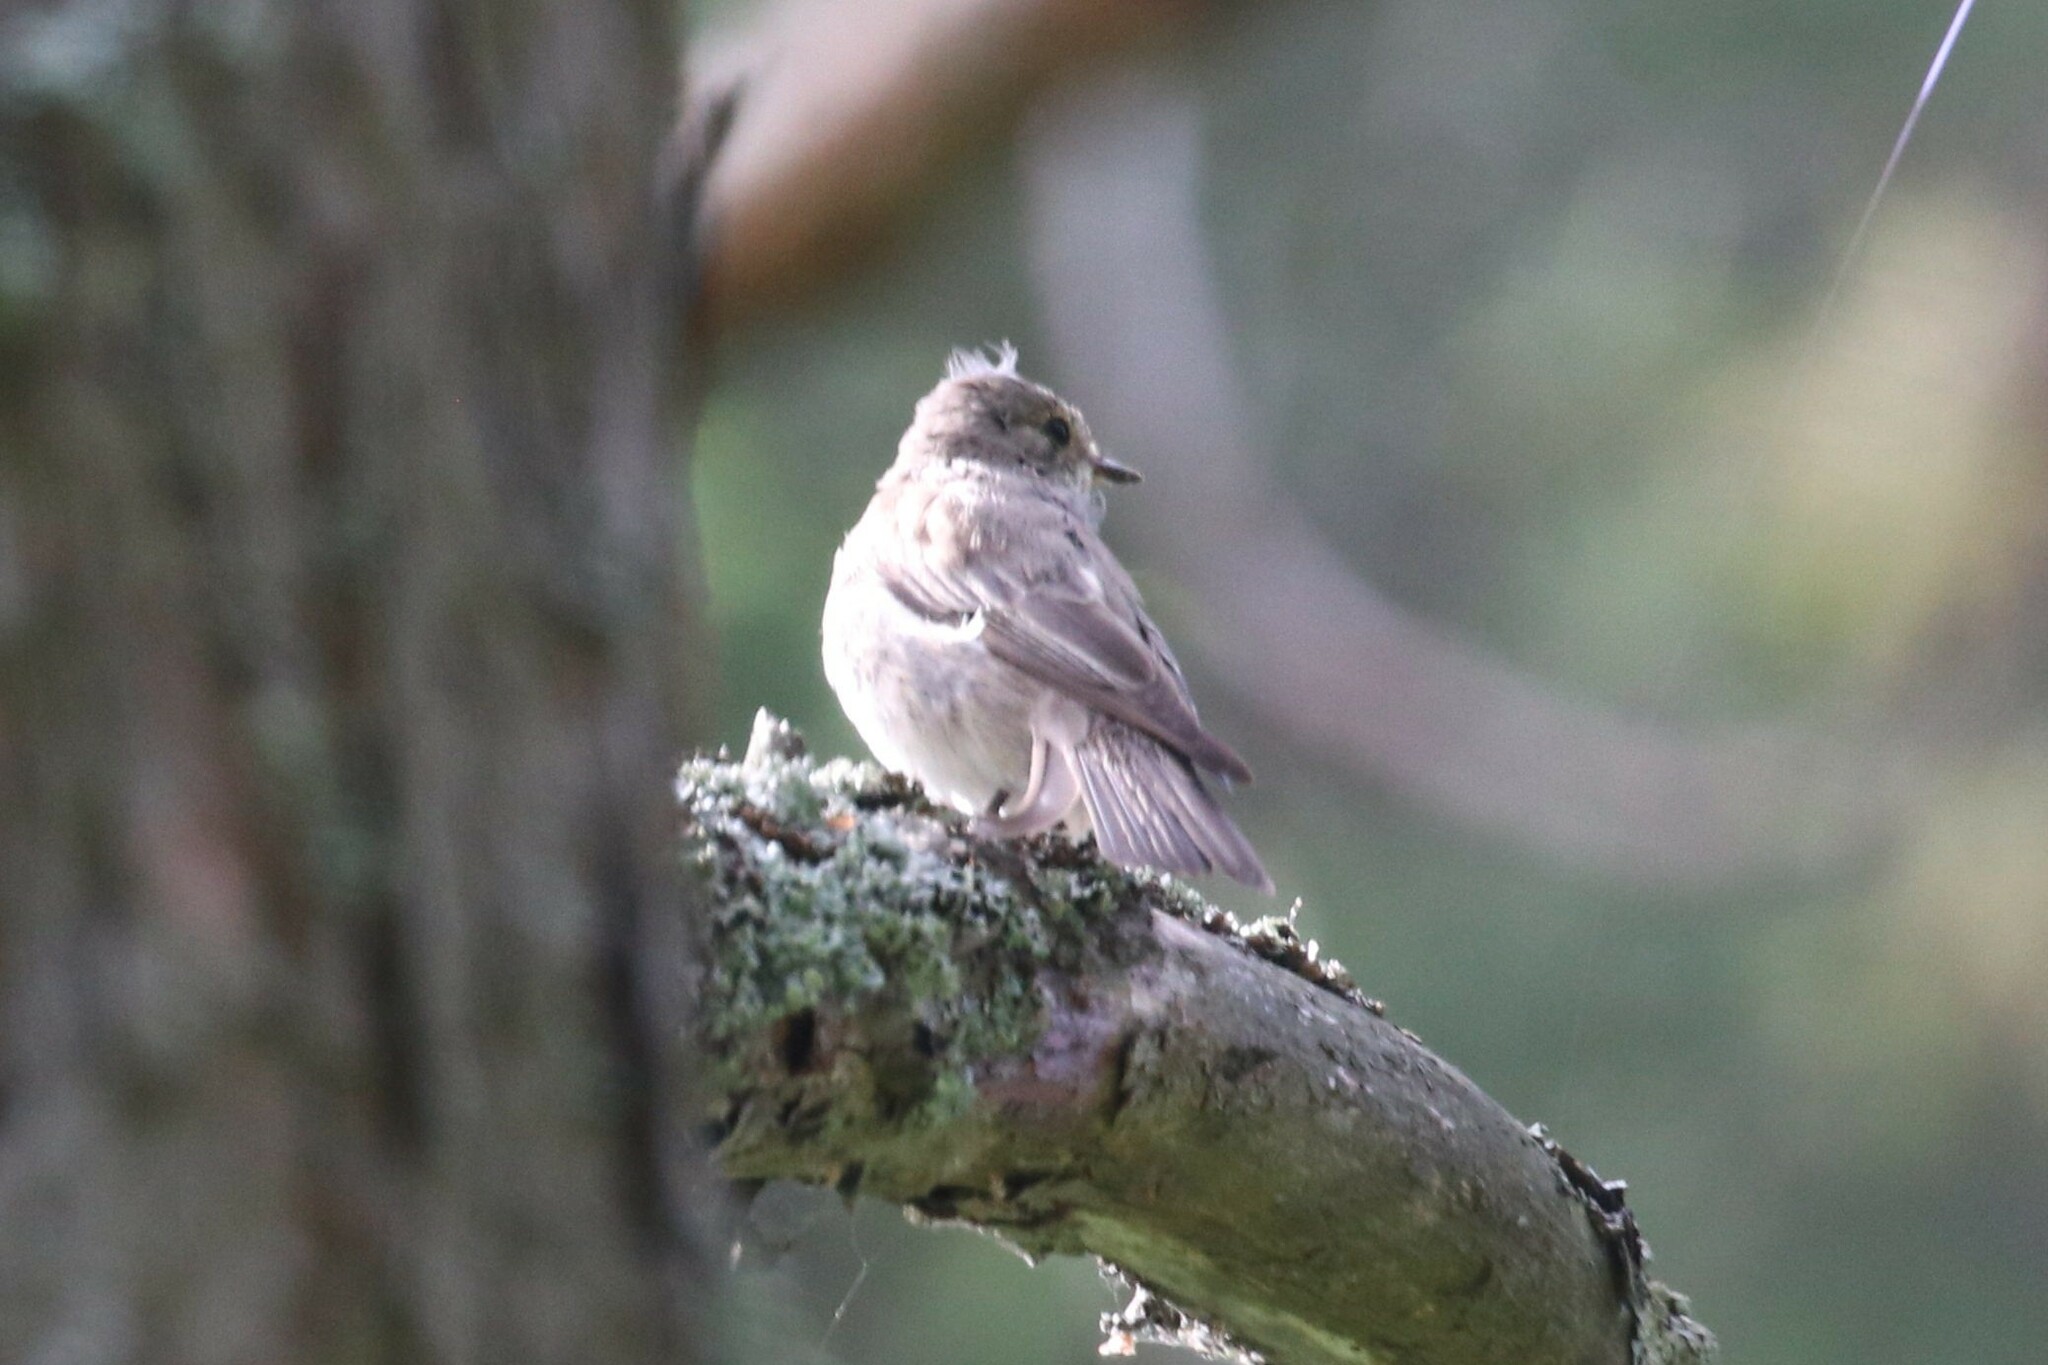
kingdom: Animalia
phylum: Chordata
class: Aves
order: Passeriformes
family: Muscicapidae
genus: Muscicapa
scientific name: Muscicapa striata
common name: Spotted flycatcher
